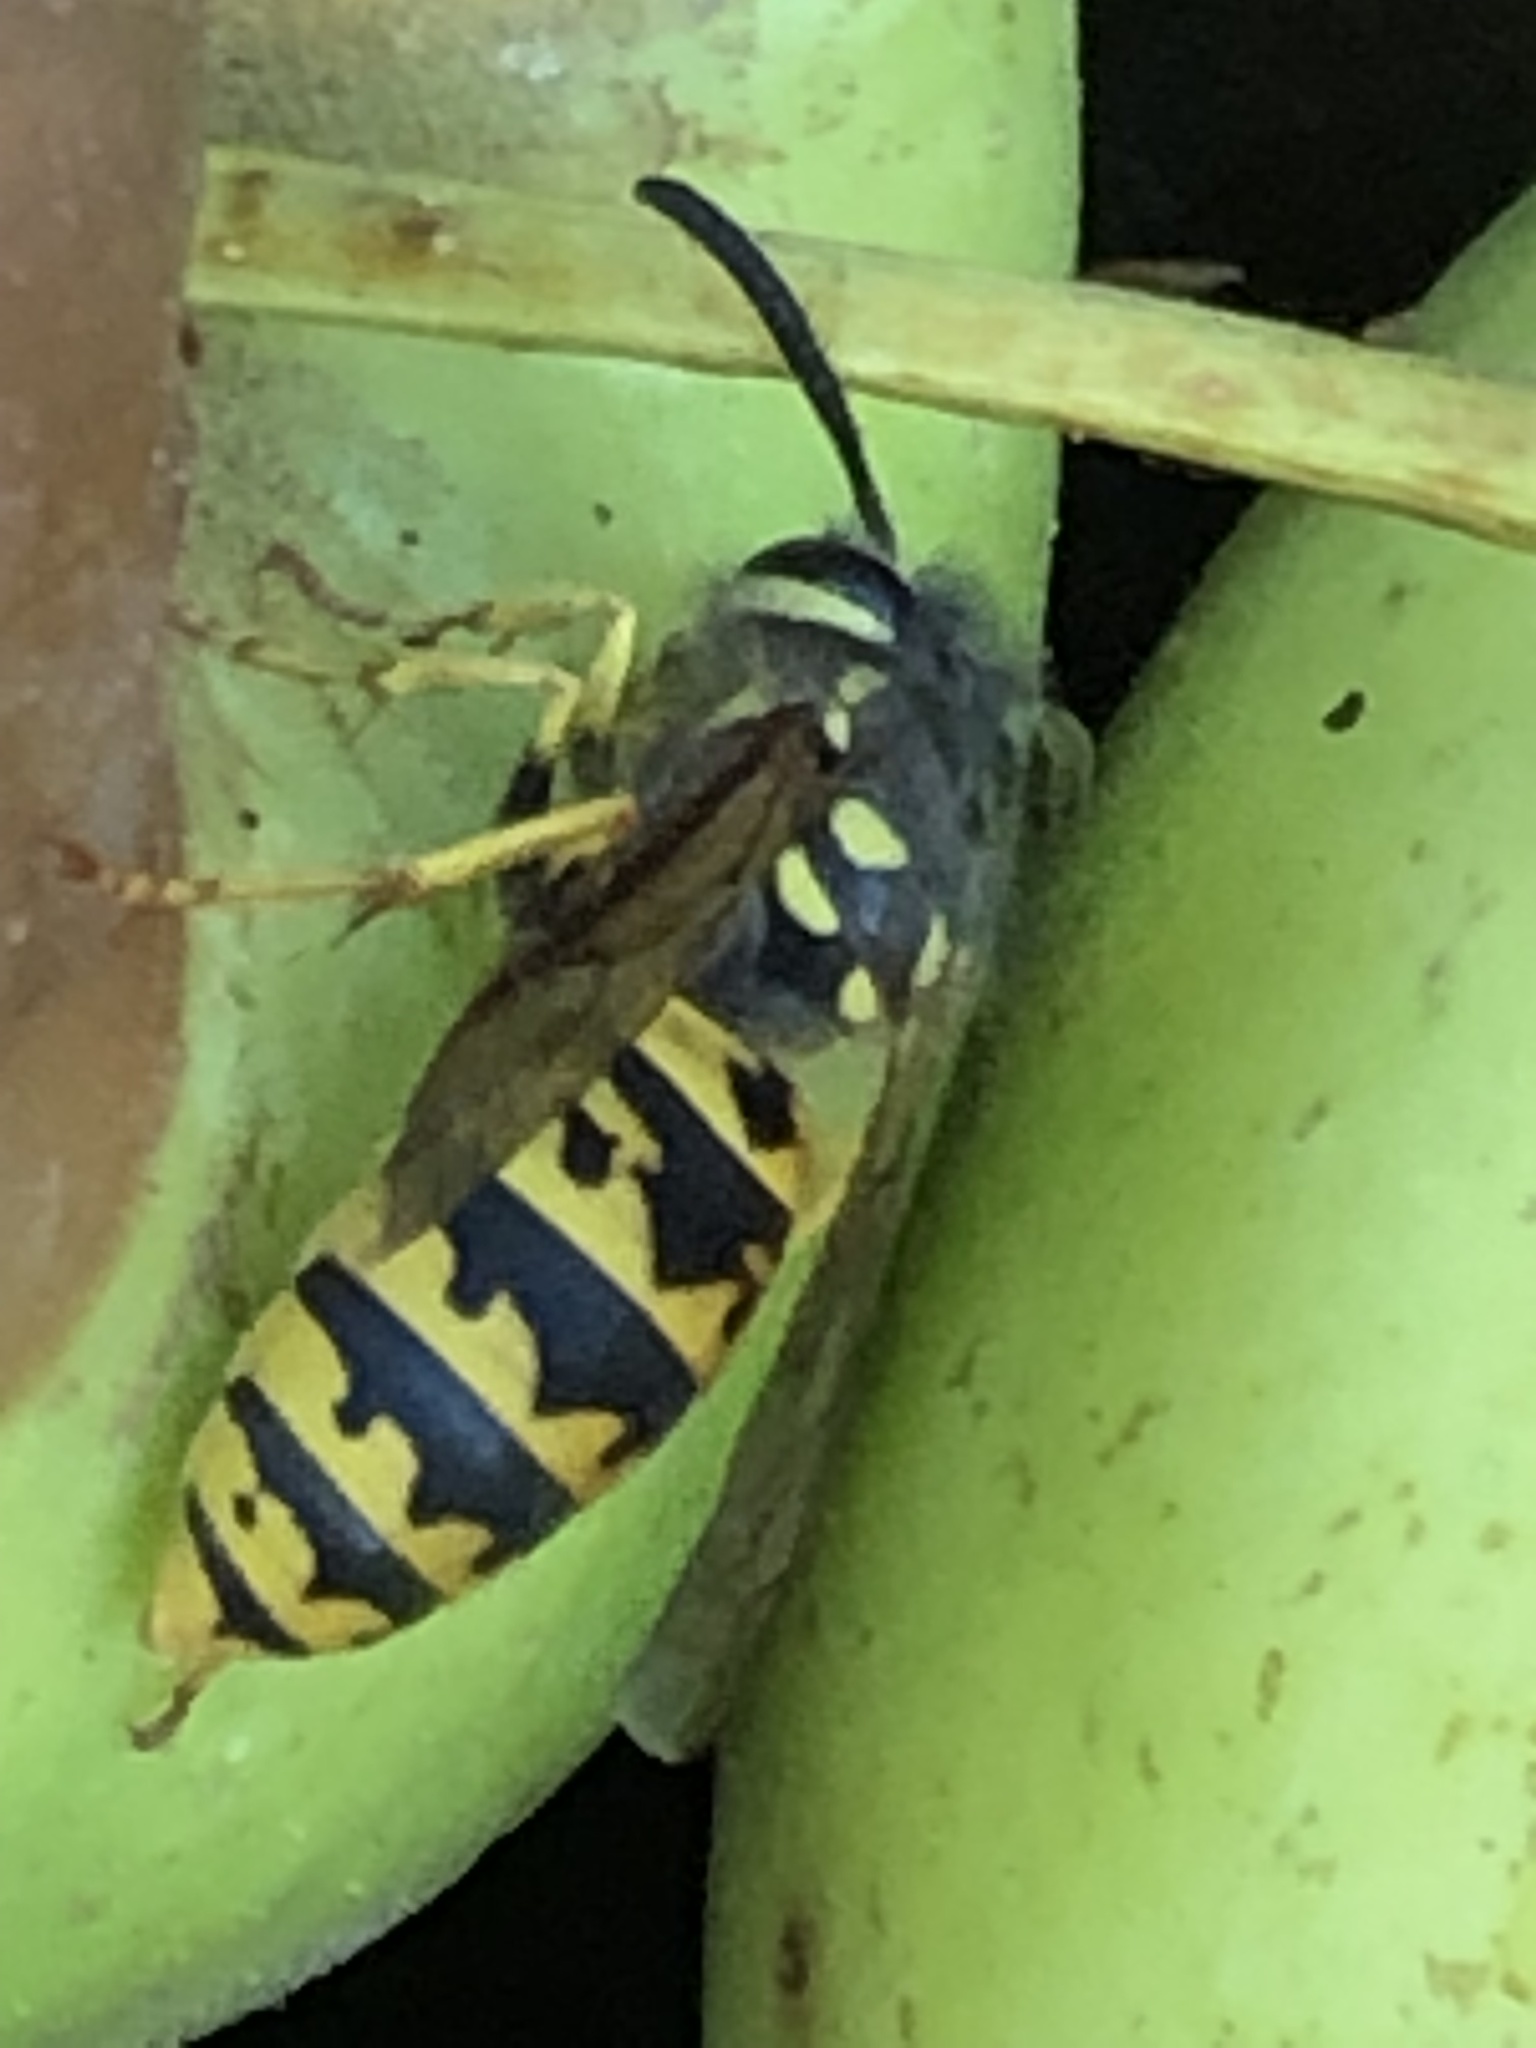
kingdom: Animalia
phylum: Arthropoda
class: Insecta
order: Hymenoptera
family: Vespidae
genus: Vespula
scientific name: Vespula germanica
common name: German wasp
